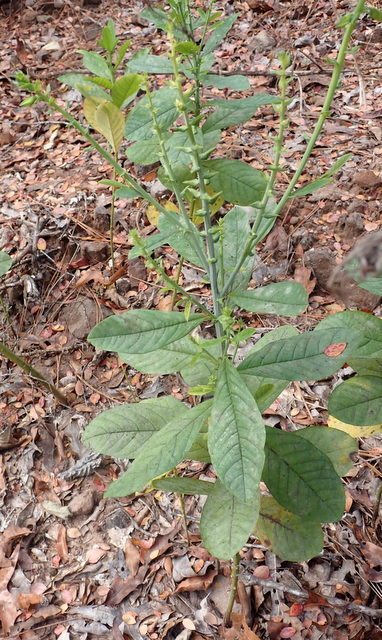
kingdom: Plantae
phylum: Tracheophyta
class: Magnoliopsida
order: Fabales
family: Fabaceae
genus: Crotalaria
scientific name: Crotalaria spectabilis
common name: Showy rattlebox
